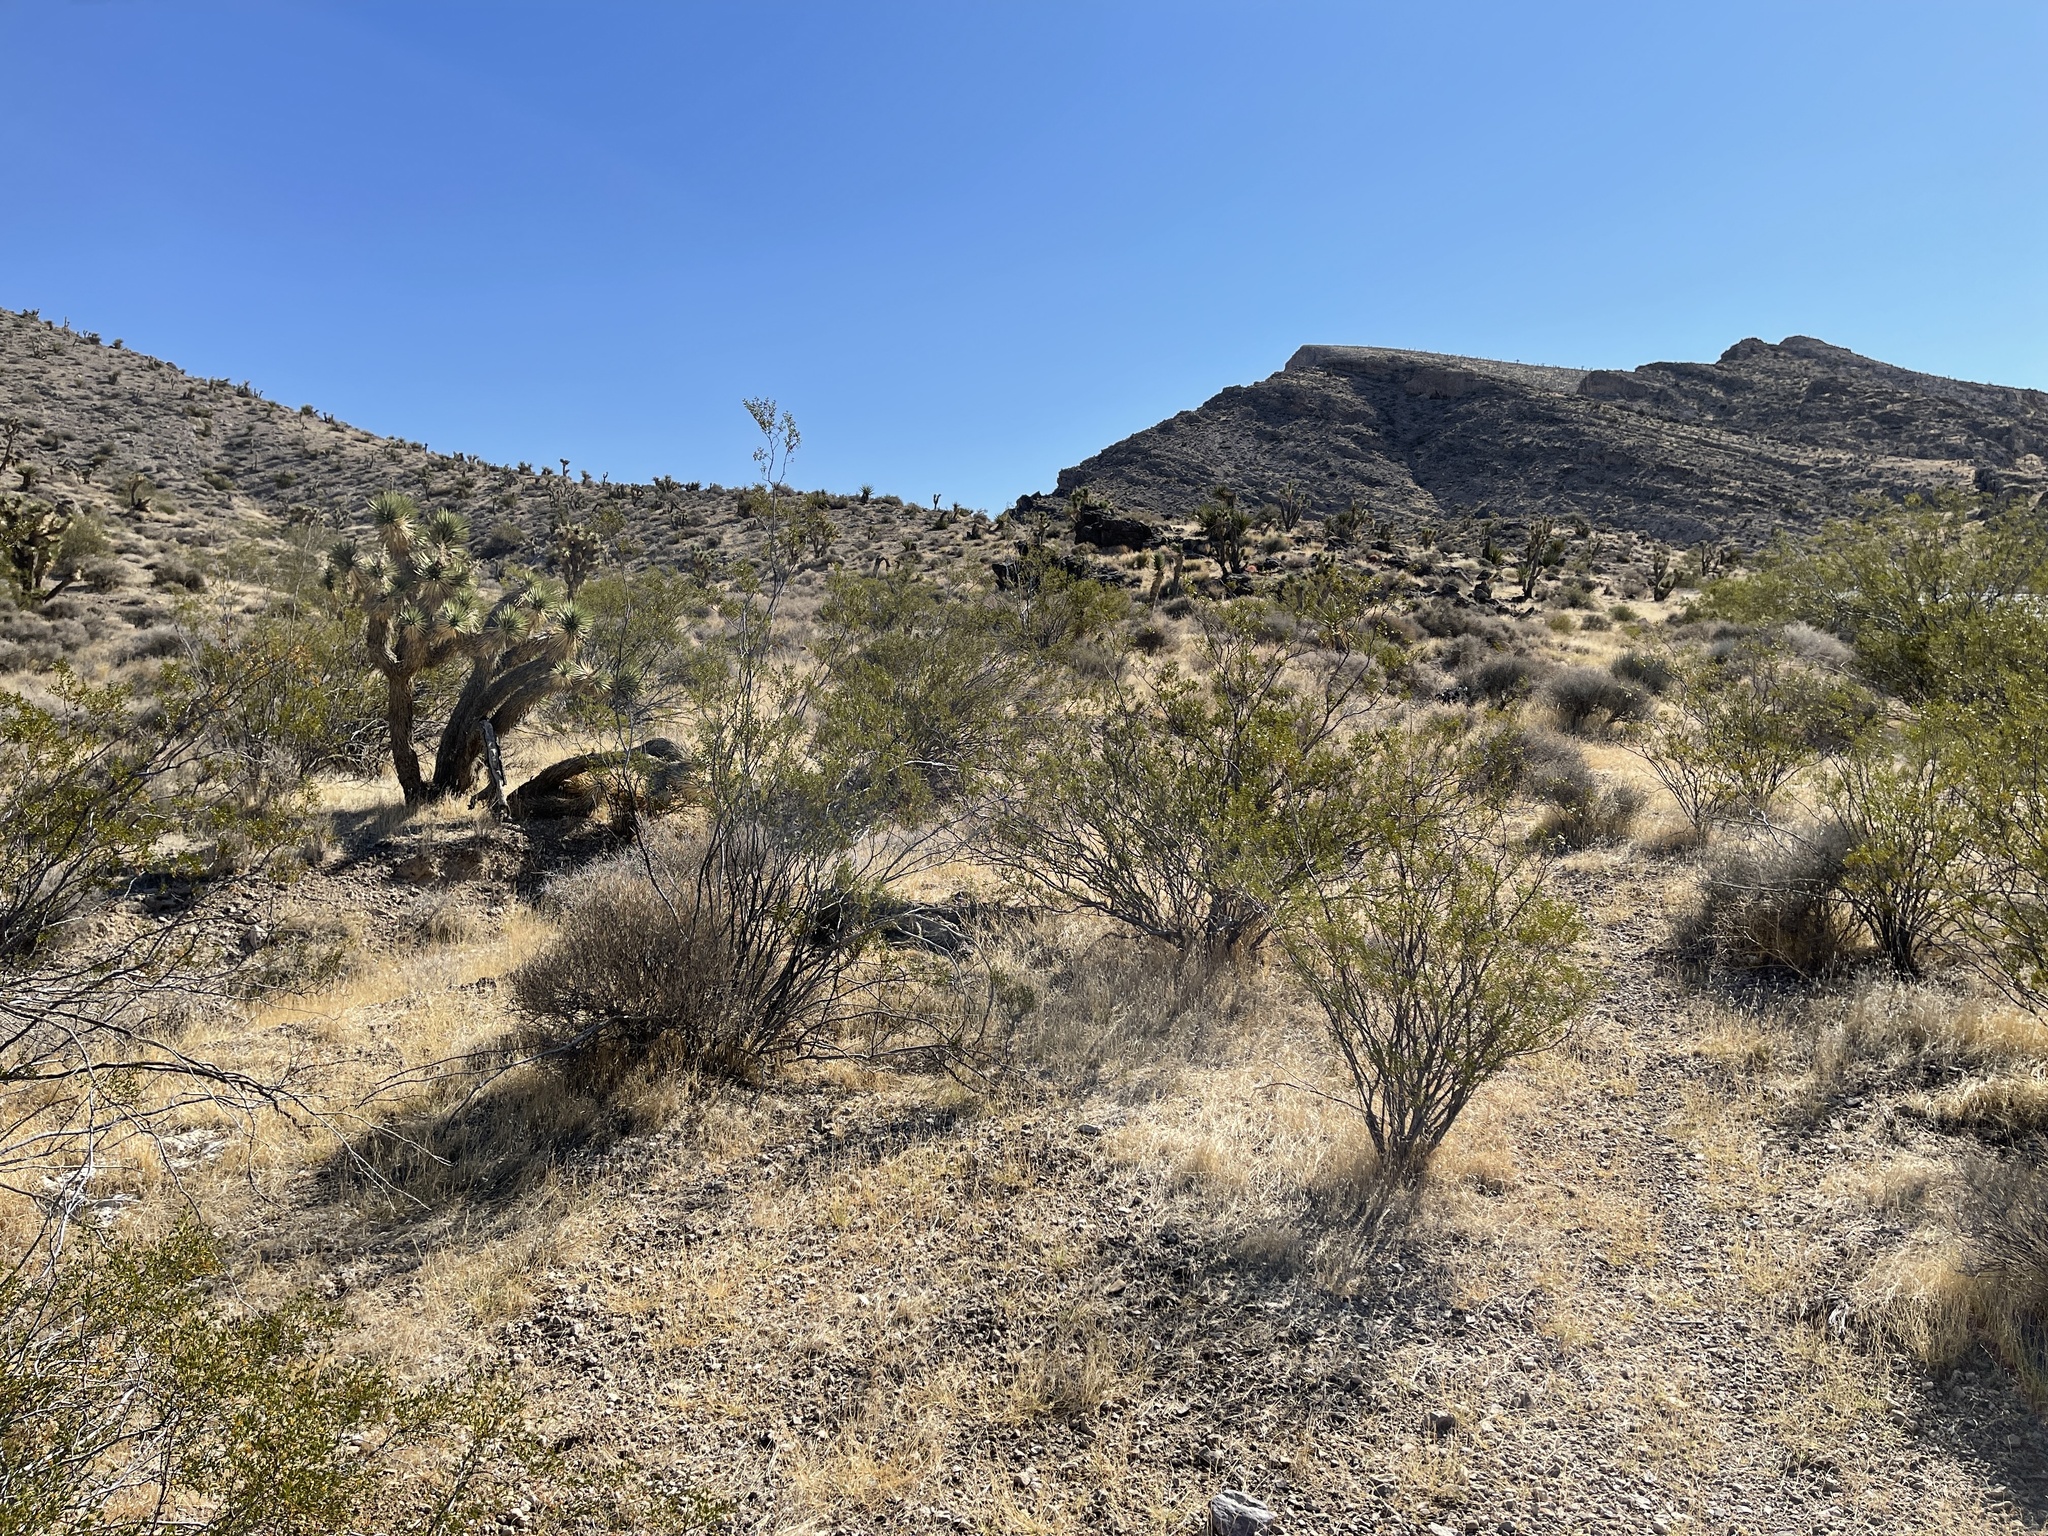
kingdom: Plantae
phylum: Tracheophyta
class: Magnoliopsida
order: Zygophyllales
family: Zygophyllaceae
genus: Larrea
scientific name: Larrea tridentata
